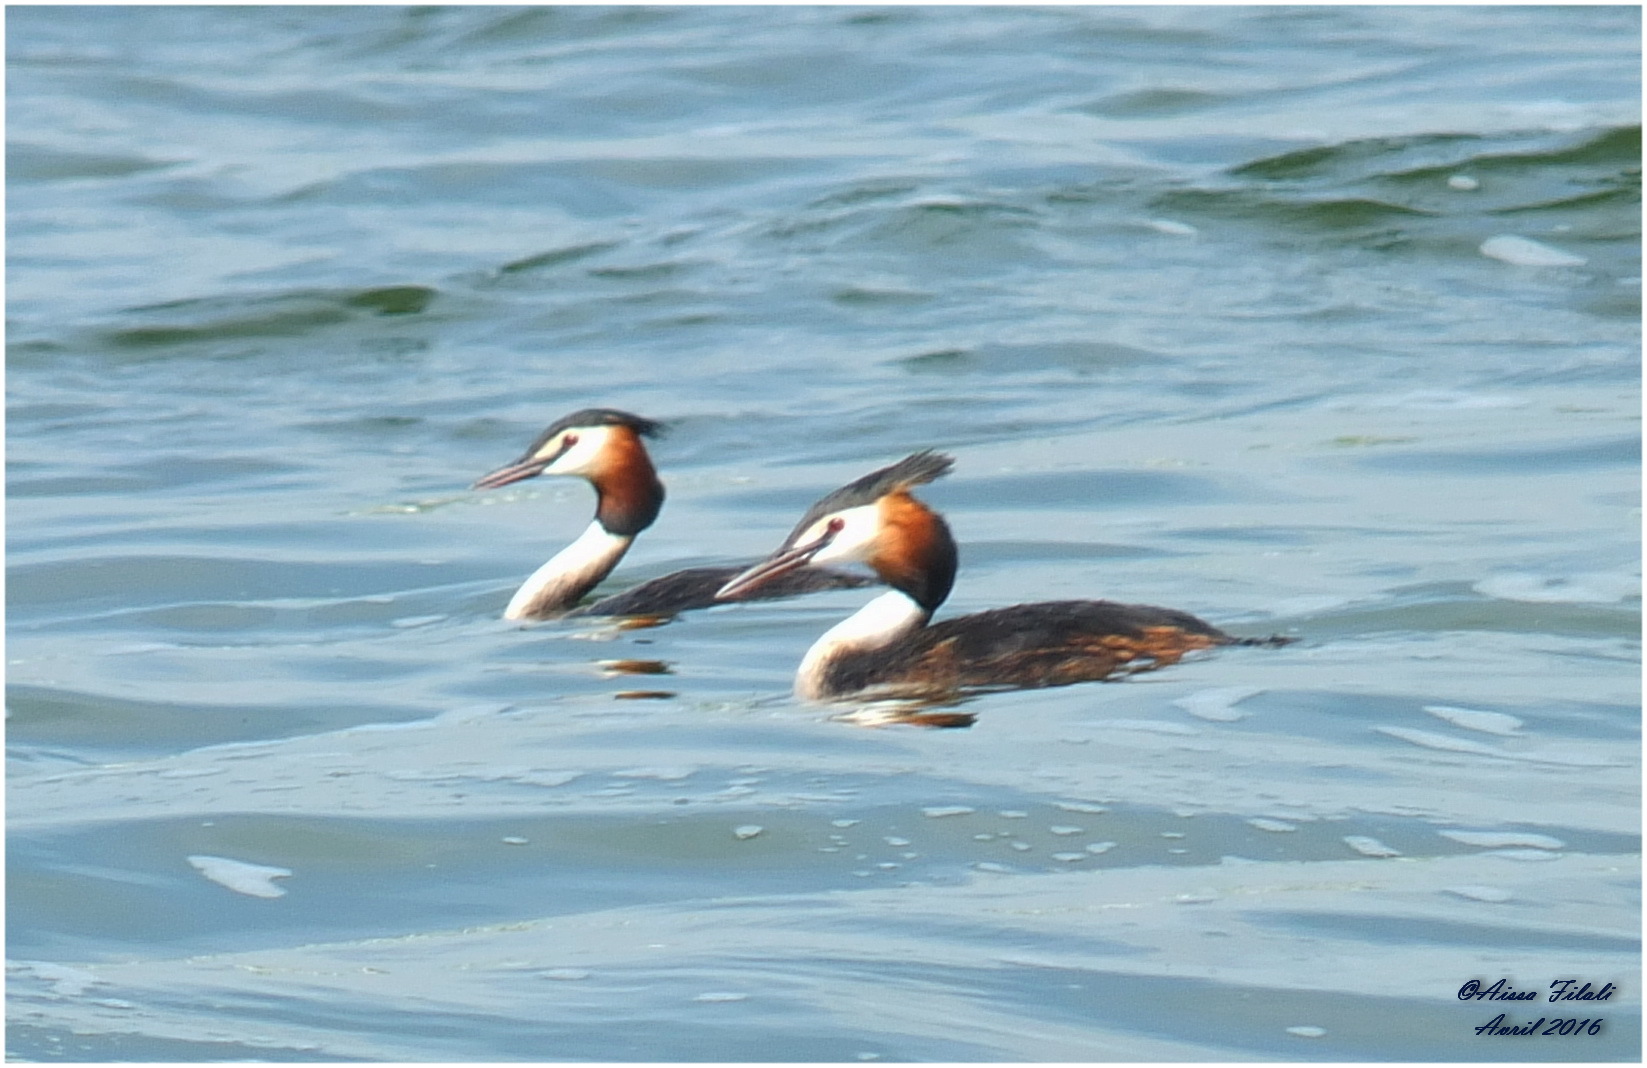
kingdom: Animalia
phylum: Chordata
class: Aves
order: Podicipediformes
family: Podicipedidae
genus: Podiceps
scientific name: Podiceps cristatus
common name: Great crested grebe
